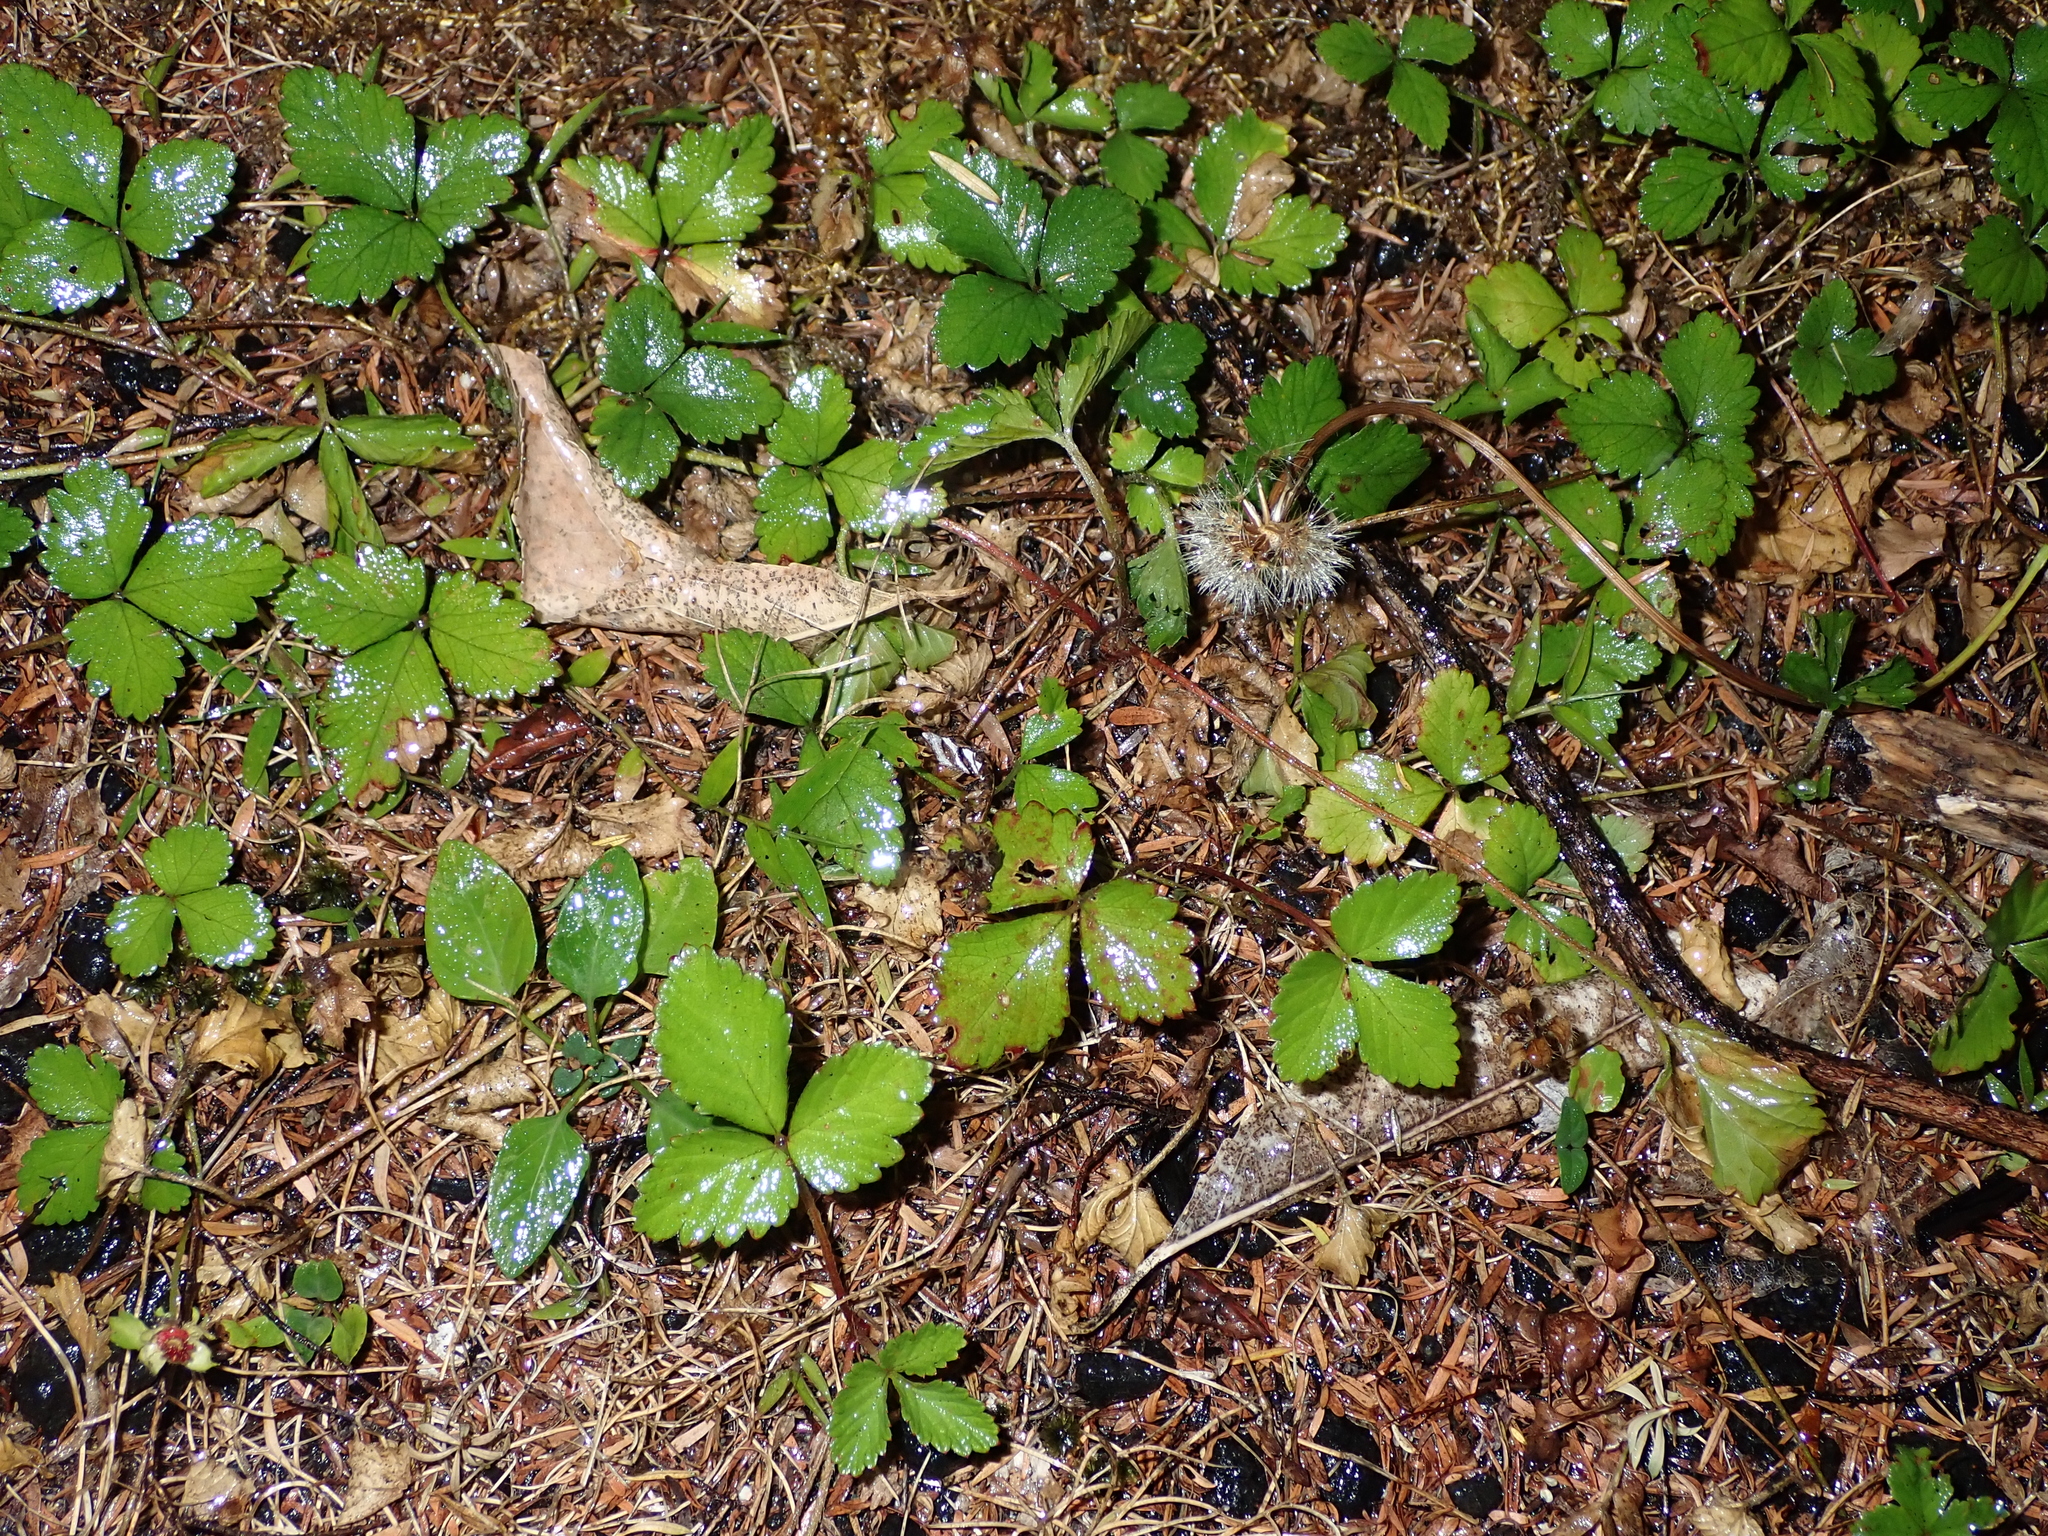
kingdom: Plantae
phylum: Tracheophyta
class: Magnoliopsida
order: Rosales
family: Rosaceae
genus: Potentilla
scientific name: Potentilla indica
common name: Yellow-flowered strawberry
